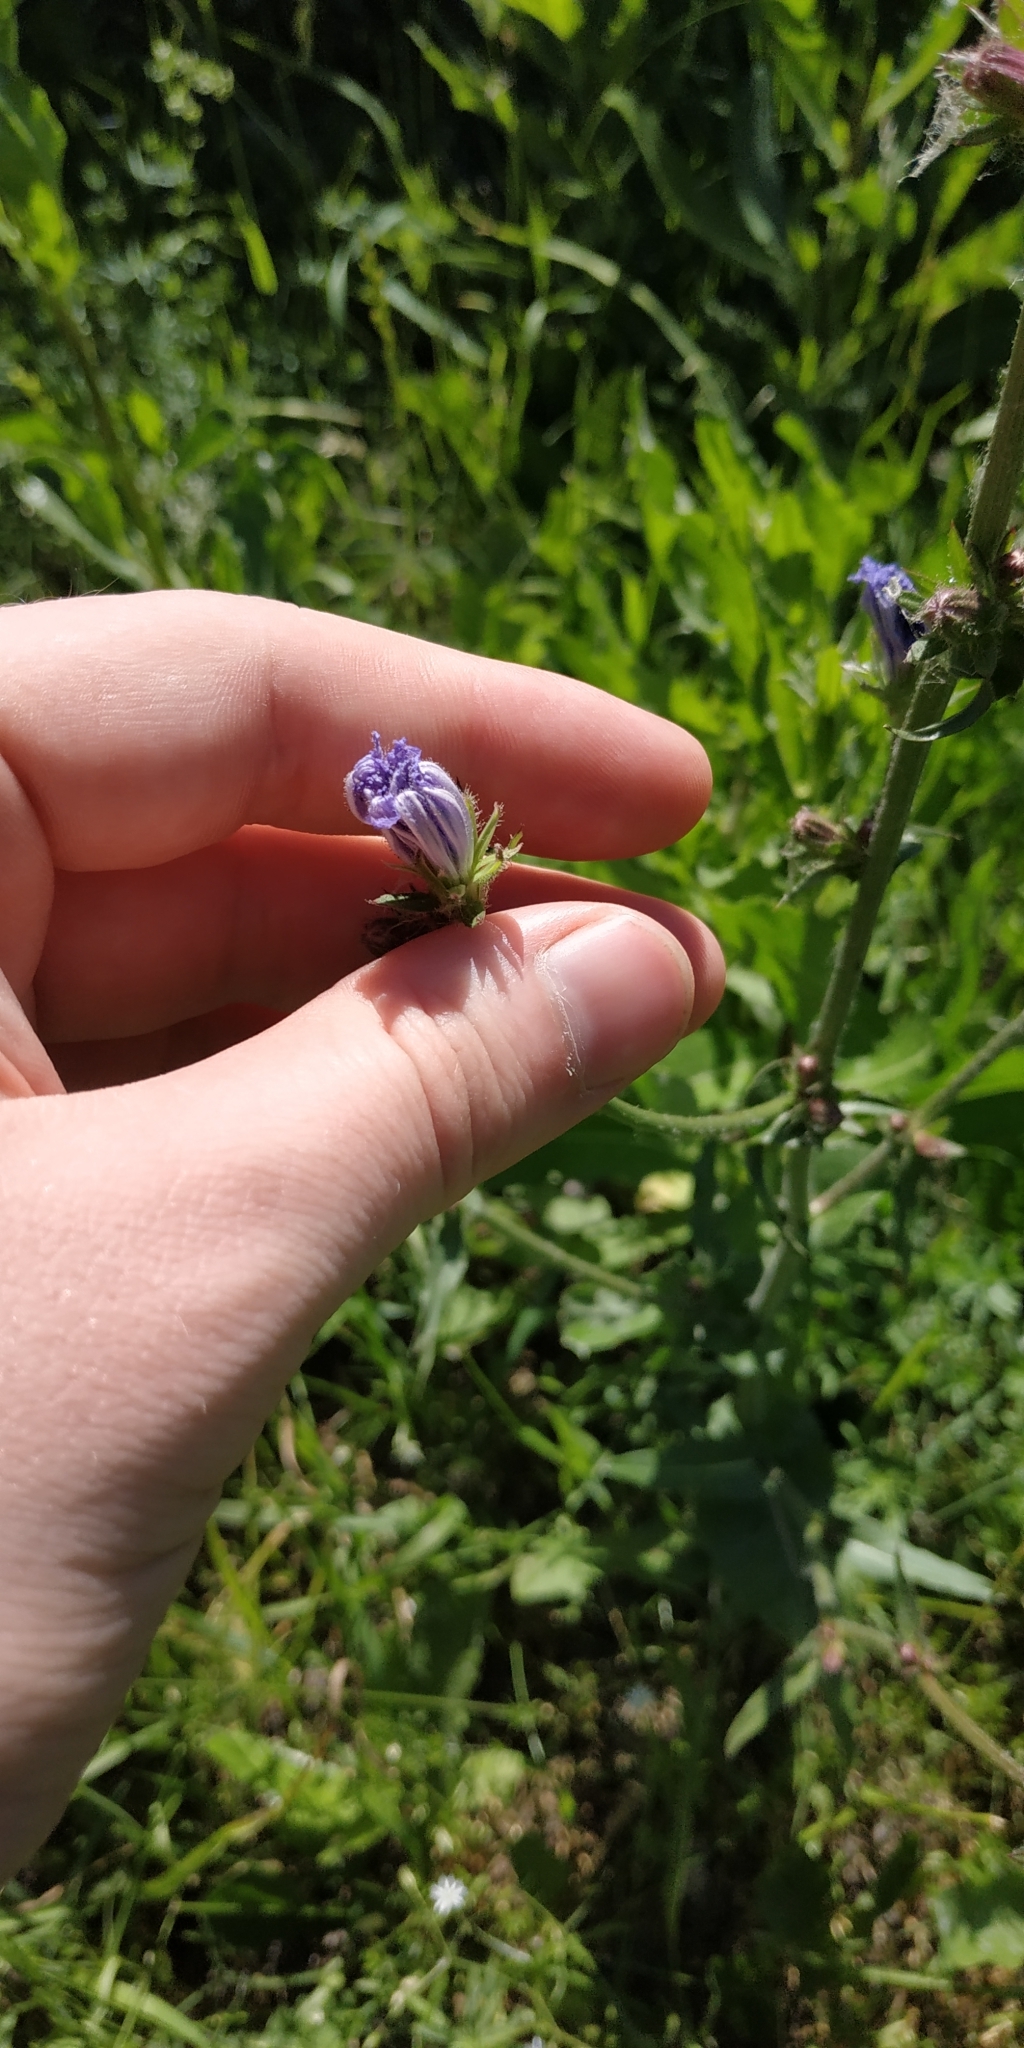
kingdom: Plantae
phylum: Tracheophyta
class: Magnoliopsida
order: Asterales
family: Asteraceae
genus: Cichorium
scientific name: Cichorium intybus
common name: Chicory
